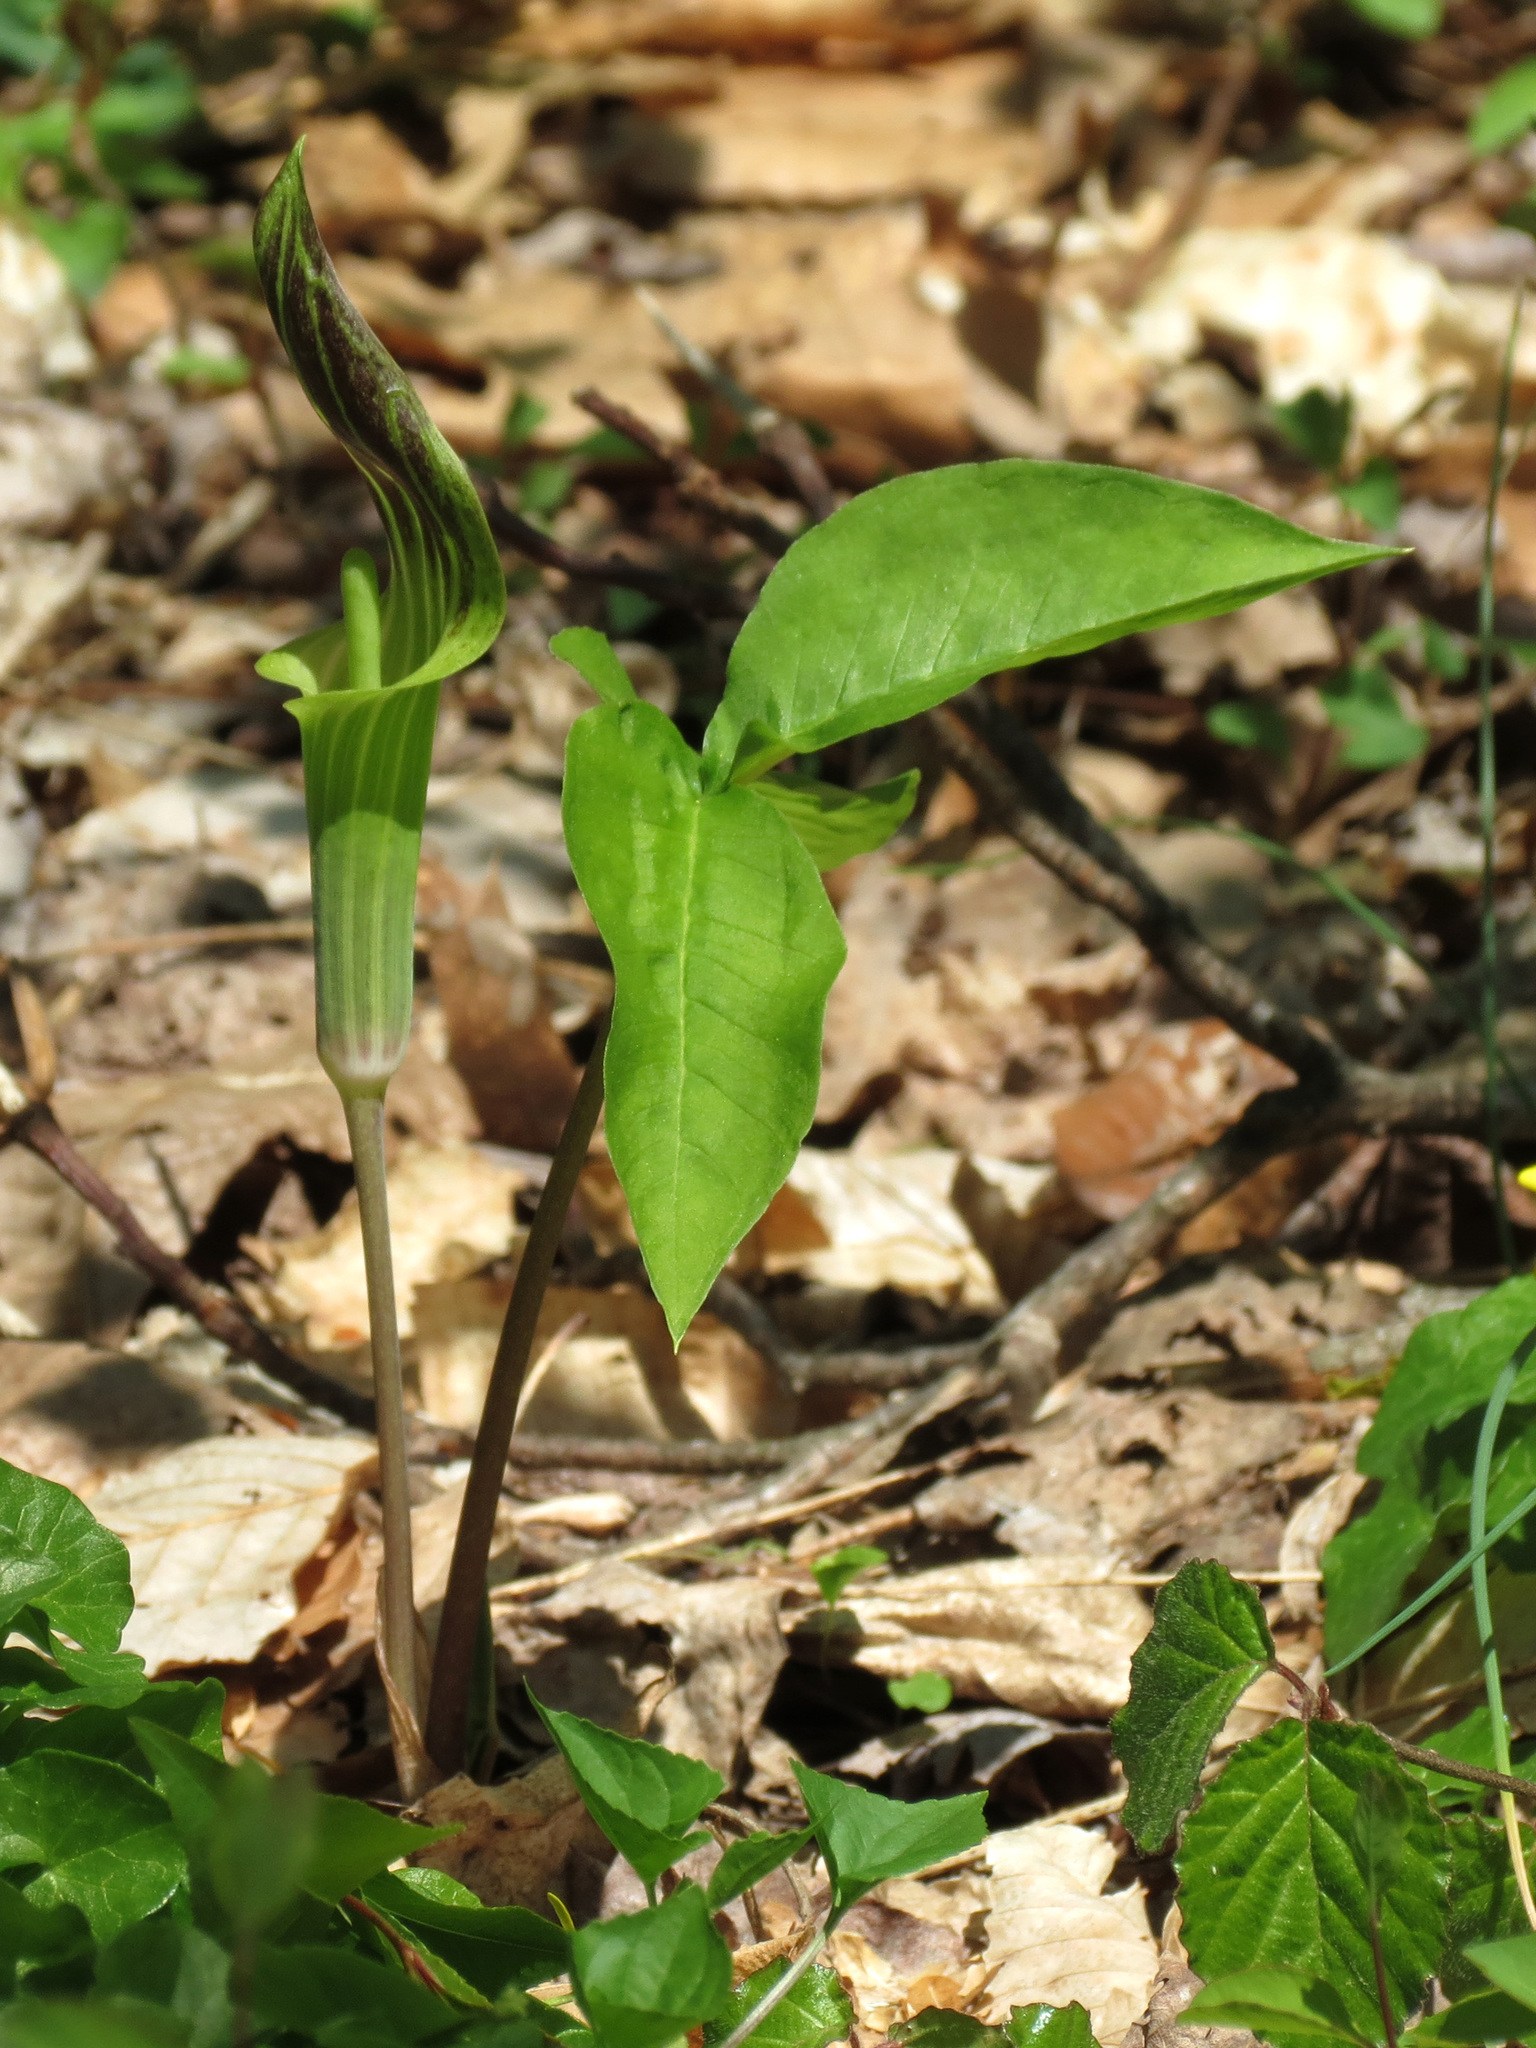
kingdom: Plantae
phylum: Tracheophyta
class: Liliopsida
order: Alismatales
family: Araceae
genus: Arisaema
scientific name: Arisaema triphyllum
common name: Jack-in-the-pulpit
